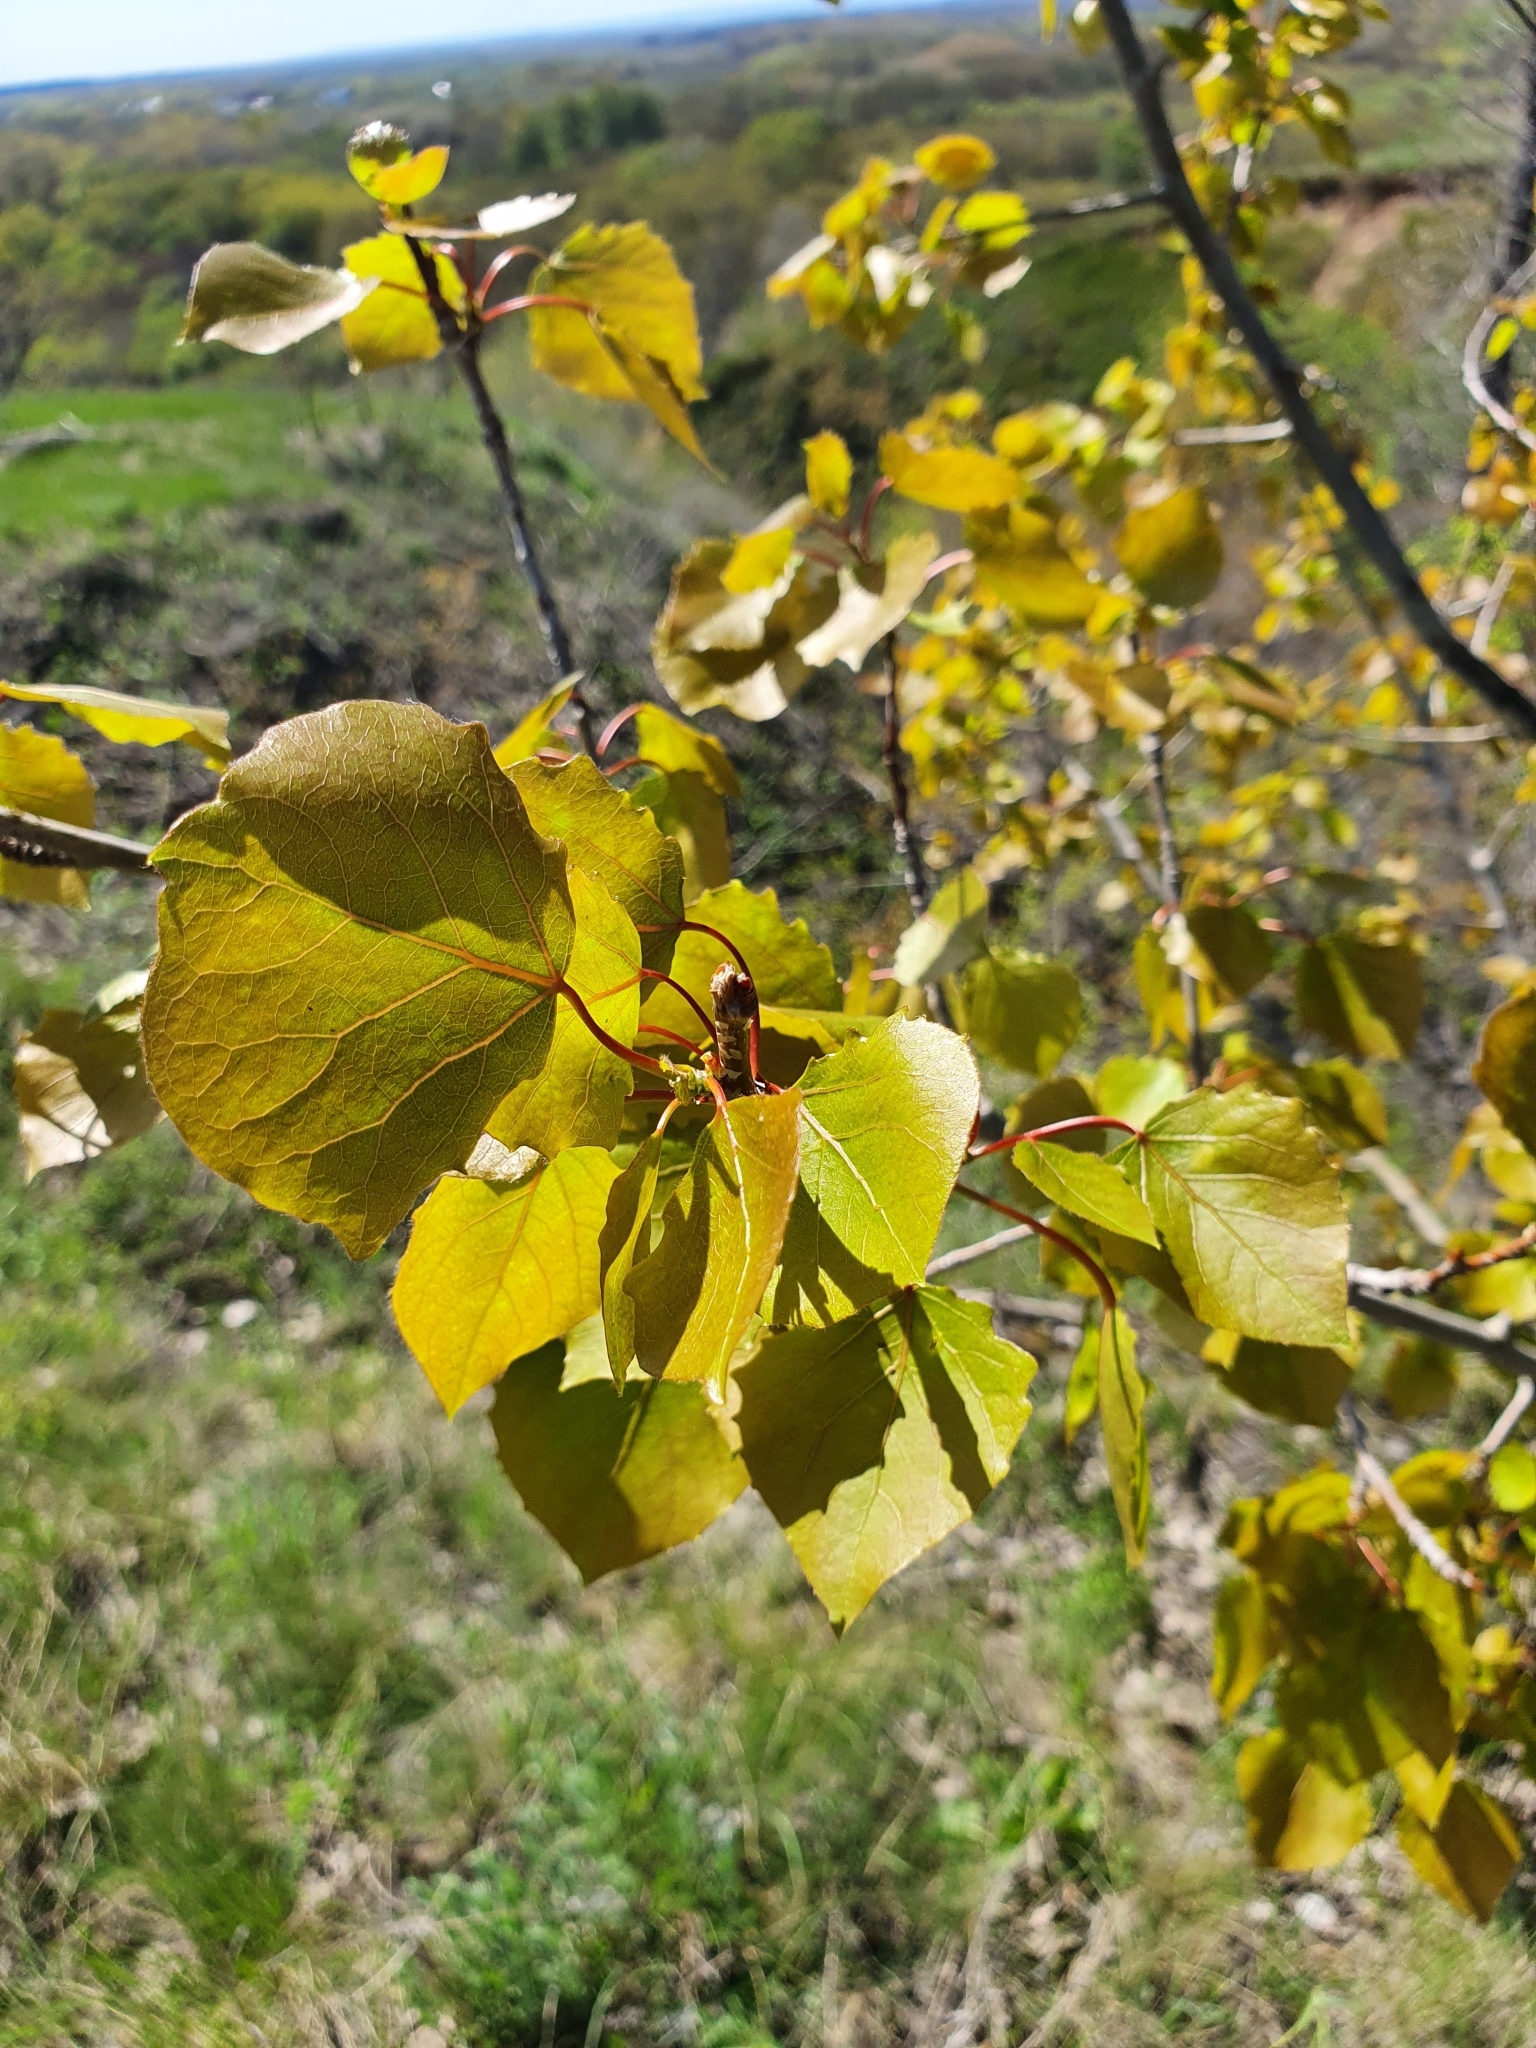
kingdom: Plantae
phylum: Tracheophyta
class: Magnoliopsida
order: Malpighiales
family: Salicaceae
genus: Populus
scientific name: Populus tremula
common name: European aspen
